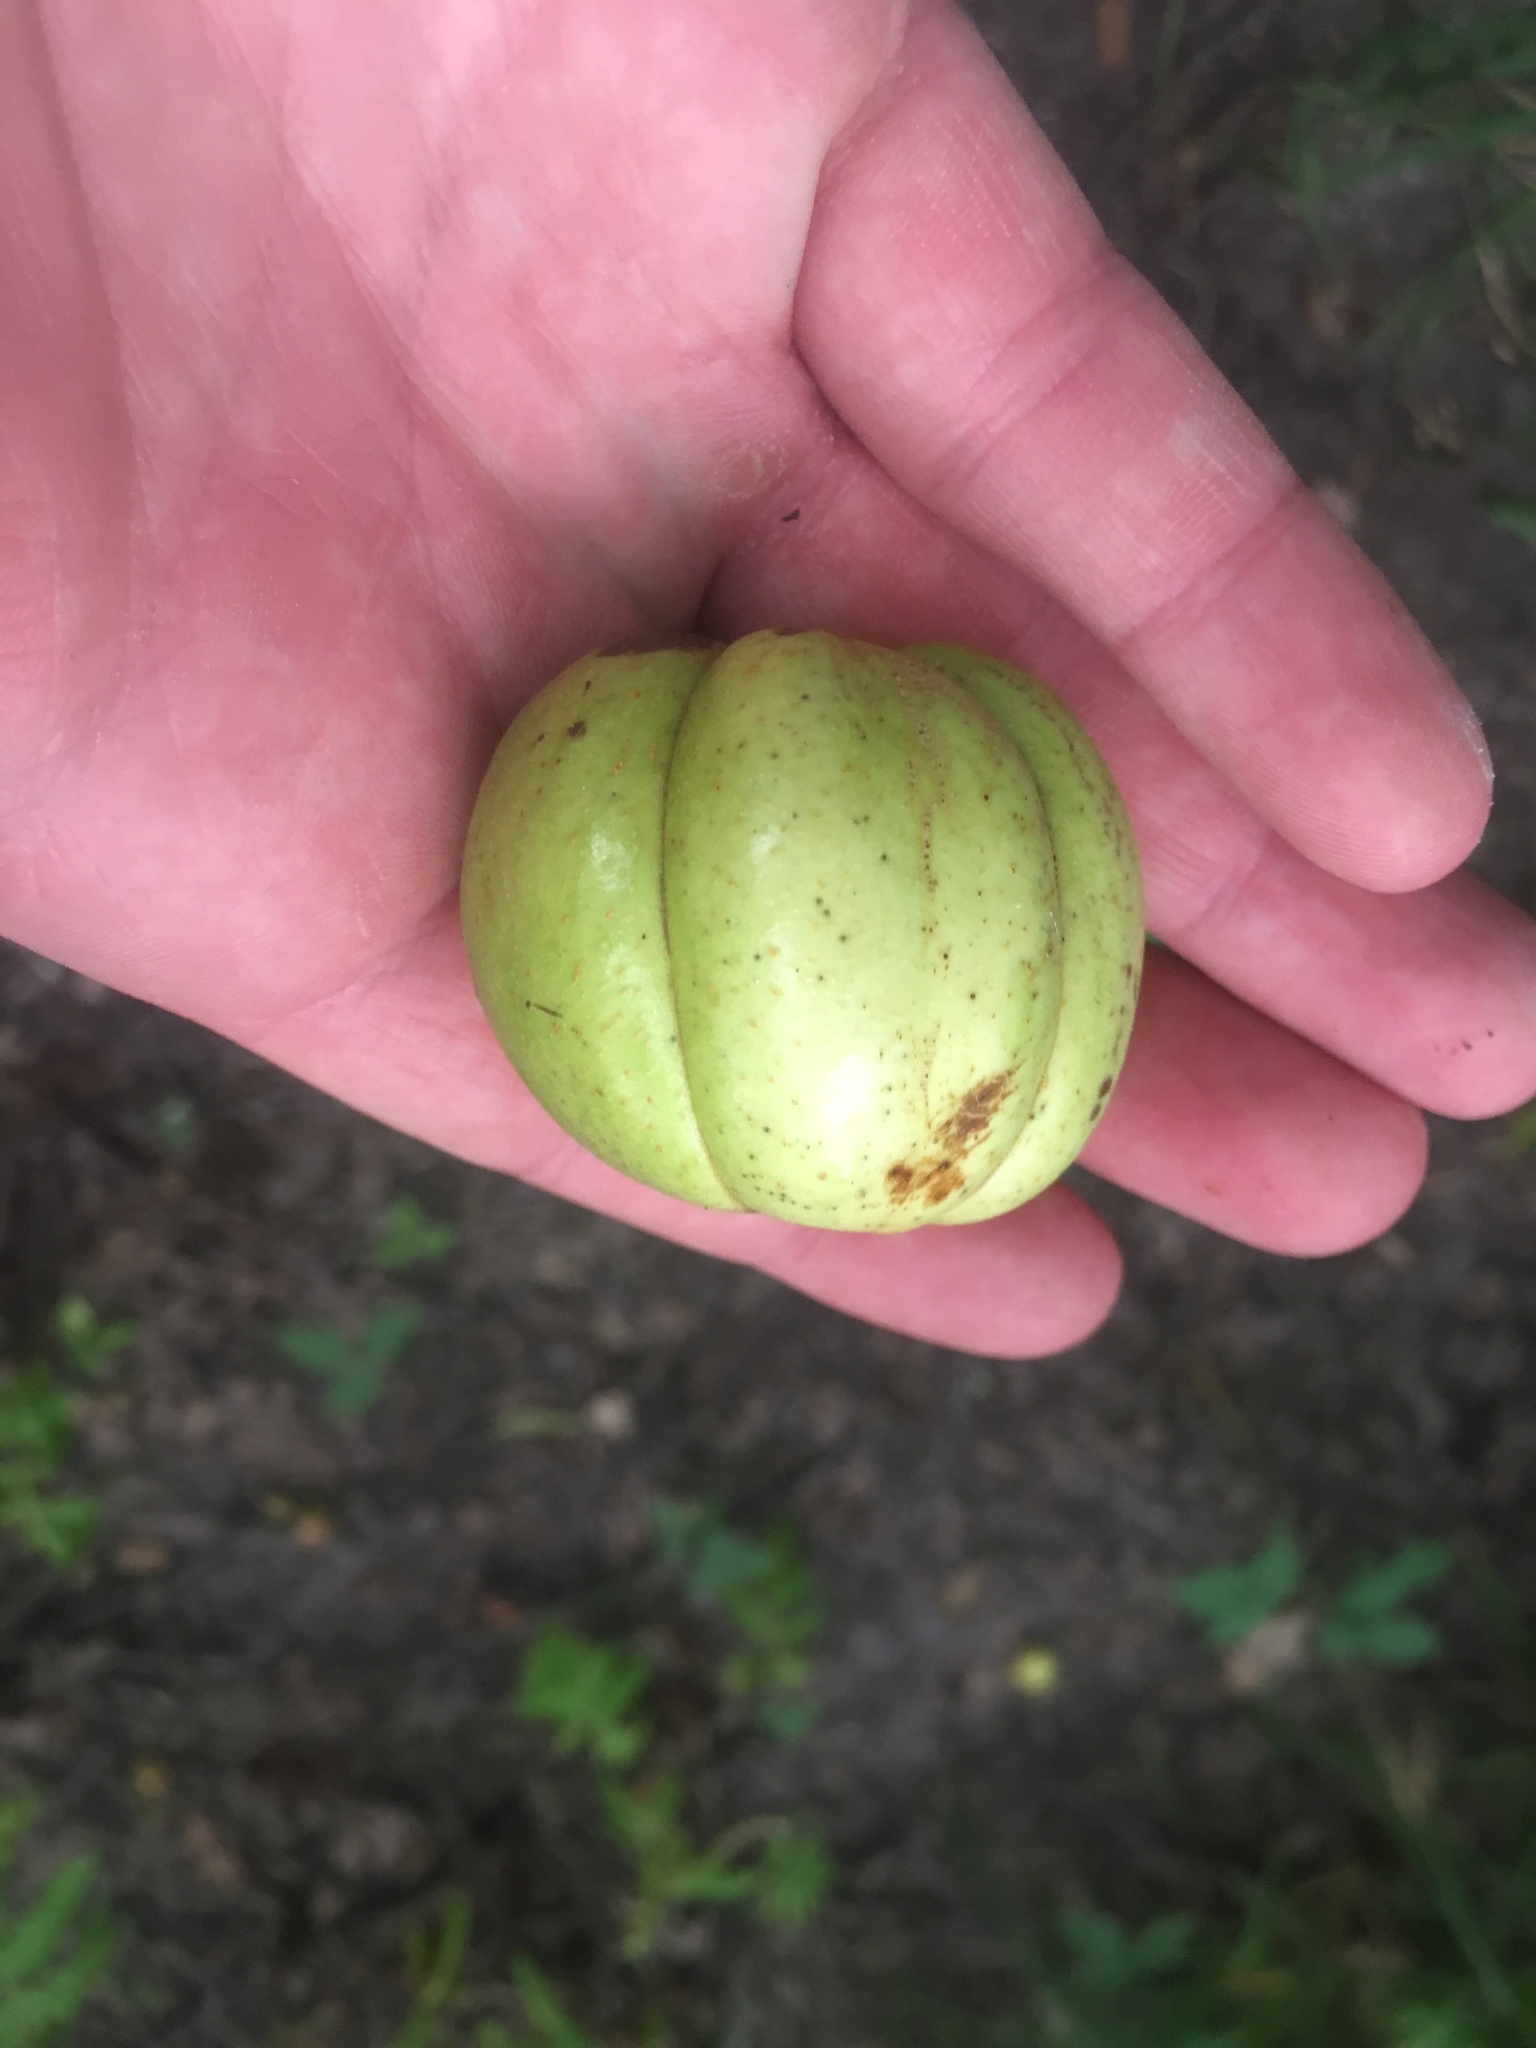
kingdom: Plantae
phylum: Tracheophyta
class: Magnoliopsida
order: Fagales
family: Juglandaceae
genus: Carya
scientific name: Carya ovata
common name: Shagbark hickory
